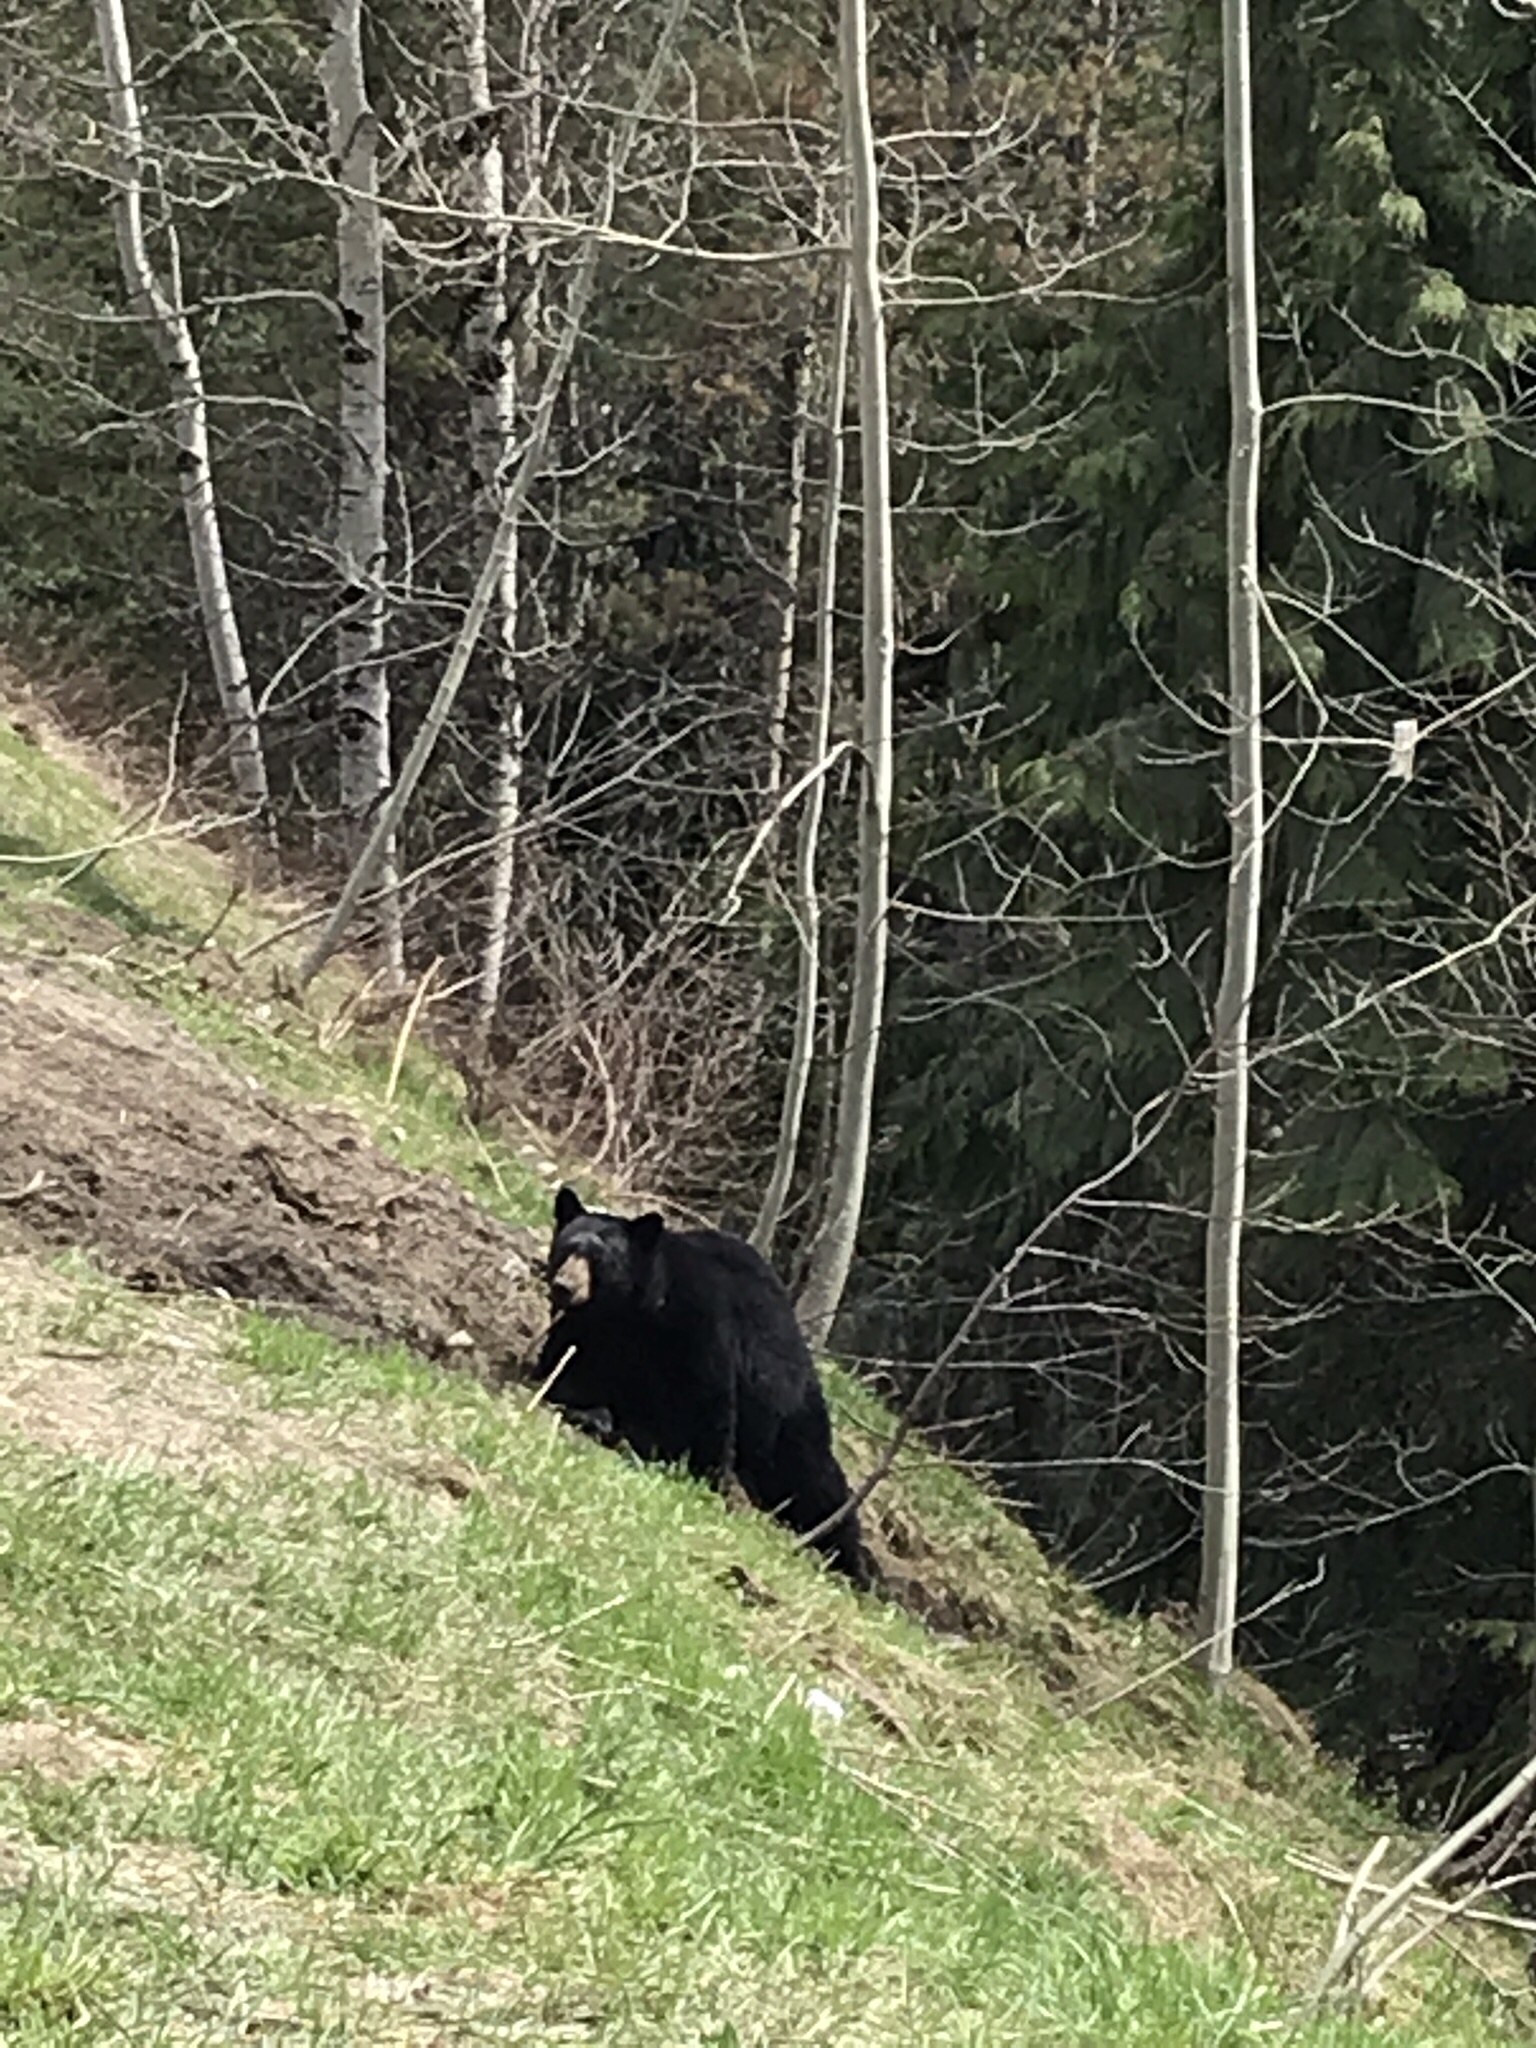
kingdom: Animalia
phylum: Chordata
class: Mammalia
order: Carnivora
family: Ursidae
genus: Ursus
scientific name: Ursus americanus
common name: American black bear
